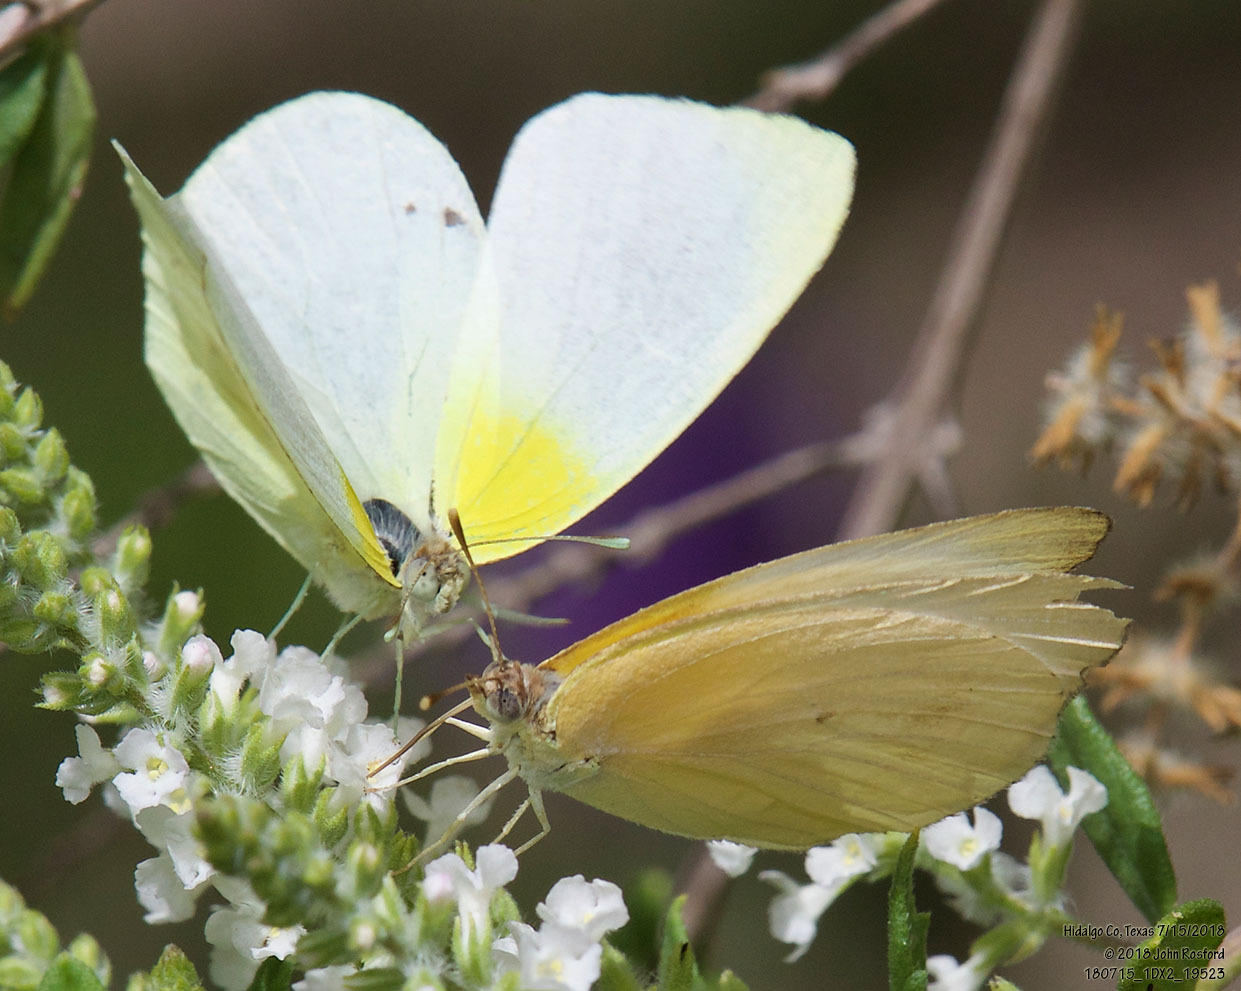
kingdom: Animalia
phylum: Arthropoda
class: Insecta
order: Lepidoptera
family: Pieridae
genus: Kricogonia
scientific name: Kricogonia lyside
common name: Guayacan sulphur,
